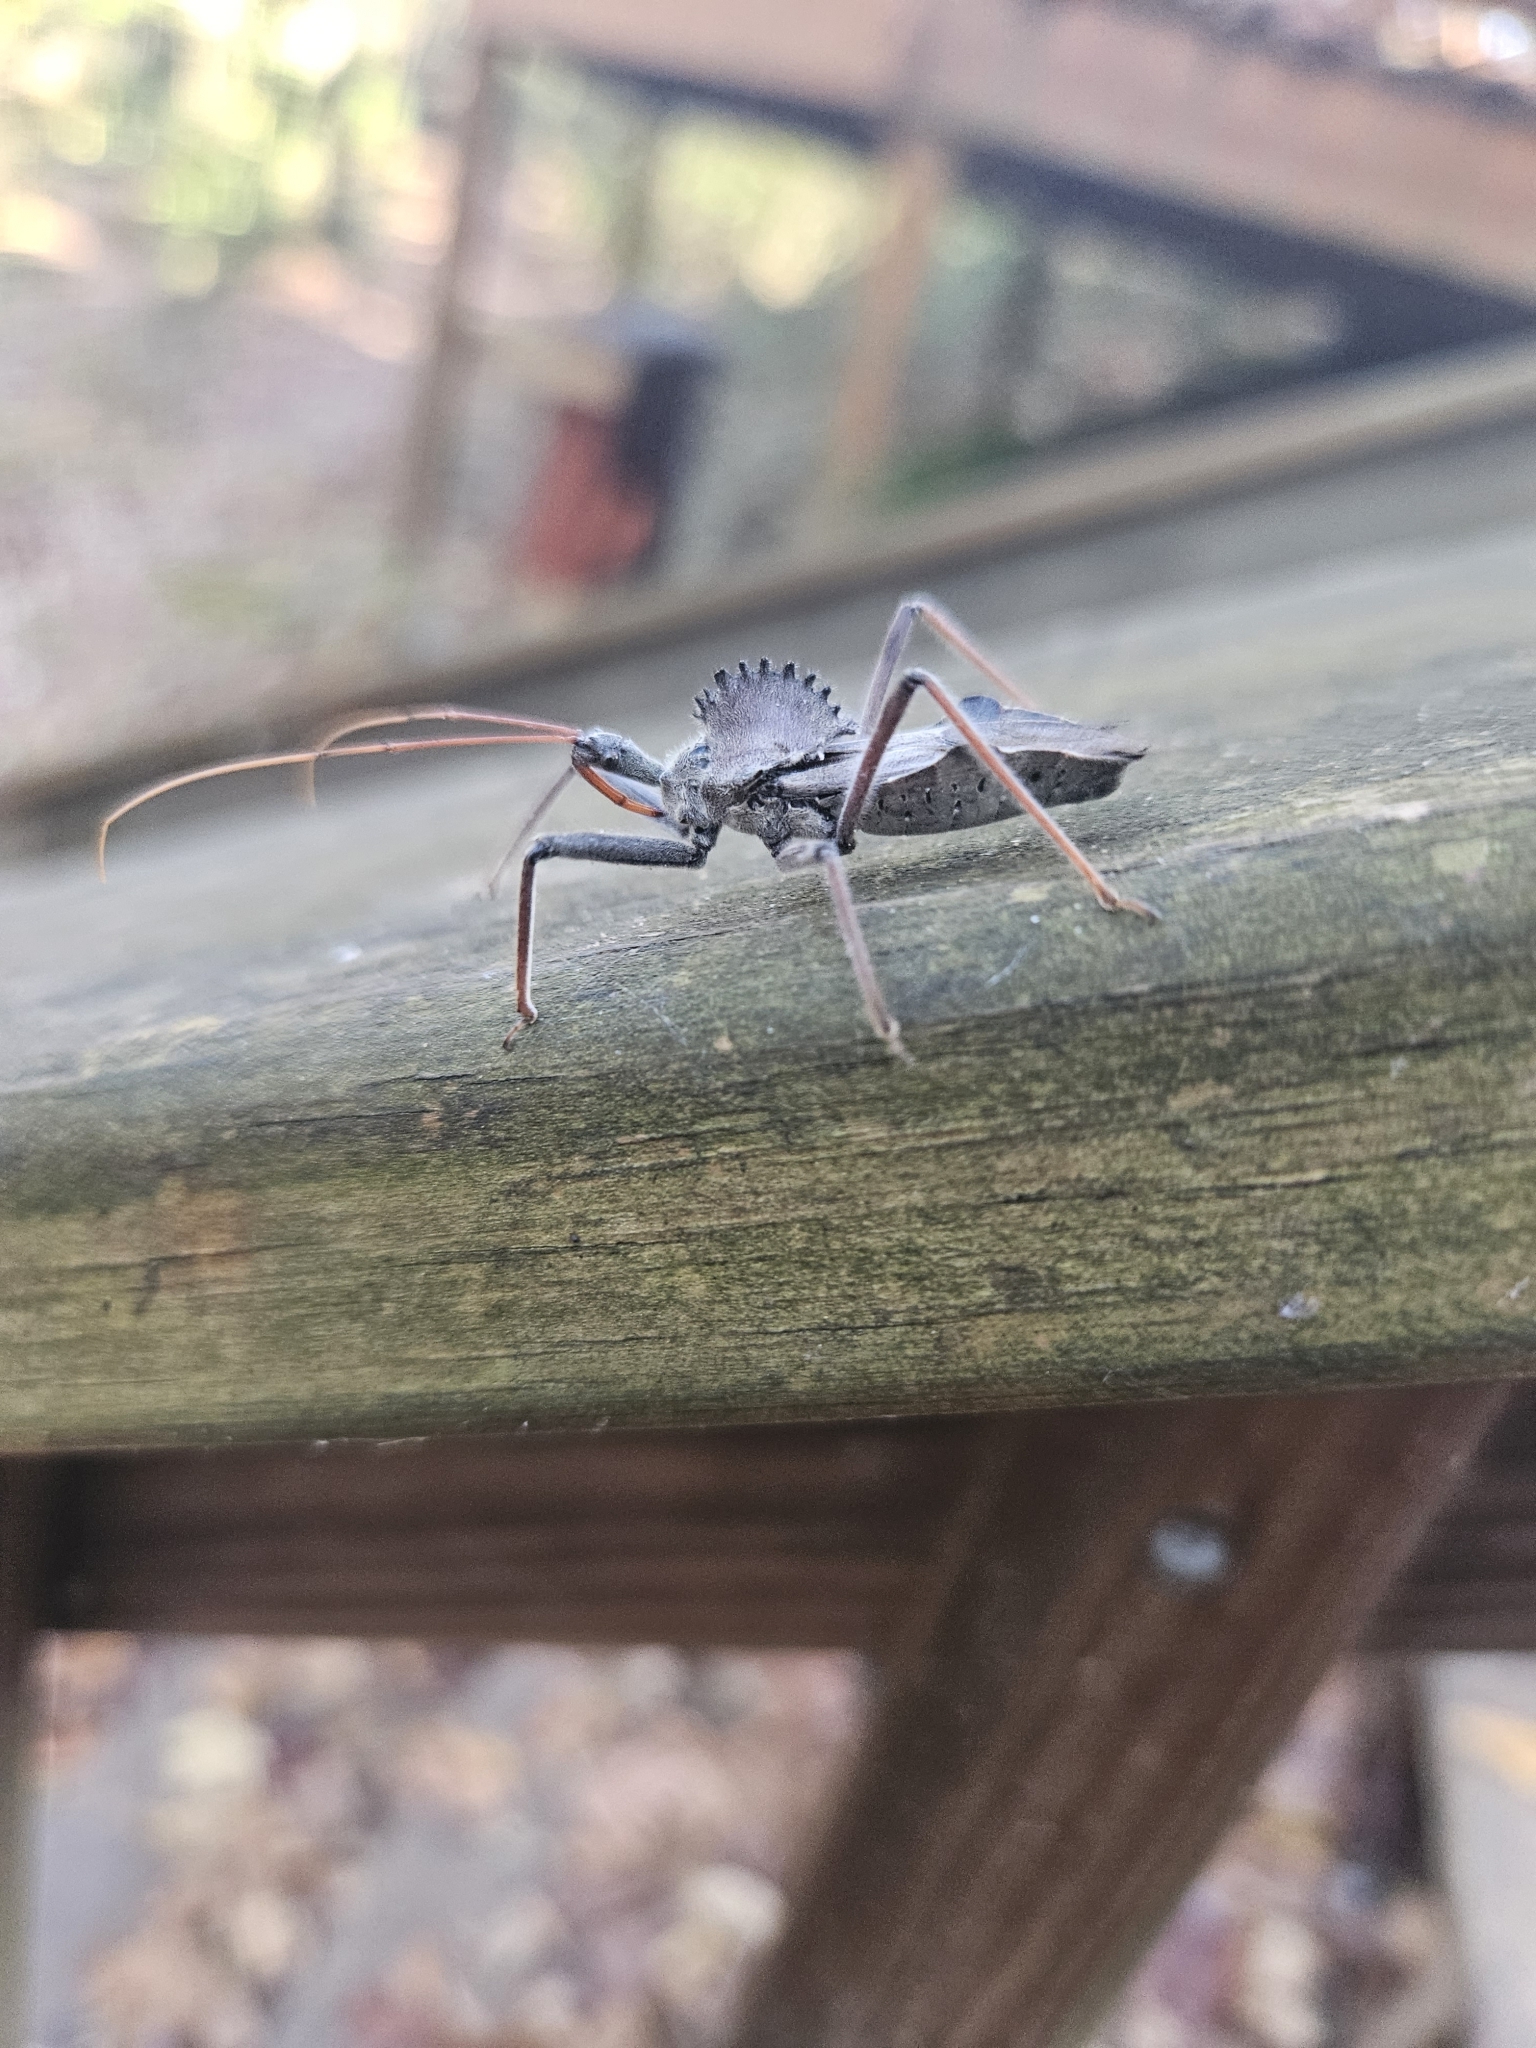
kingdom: Animalia
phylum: Arthropoda
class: Insecta
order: Hemiptera
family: Reduviidae
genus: Arilus
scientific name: Arilus cristatus
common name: North american wheel bug
